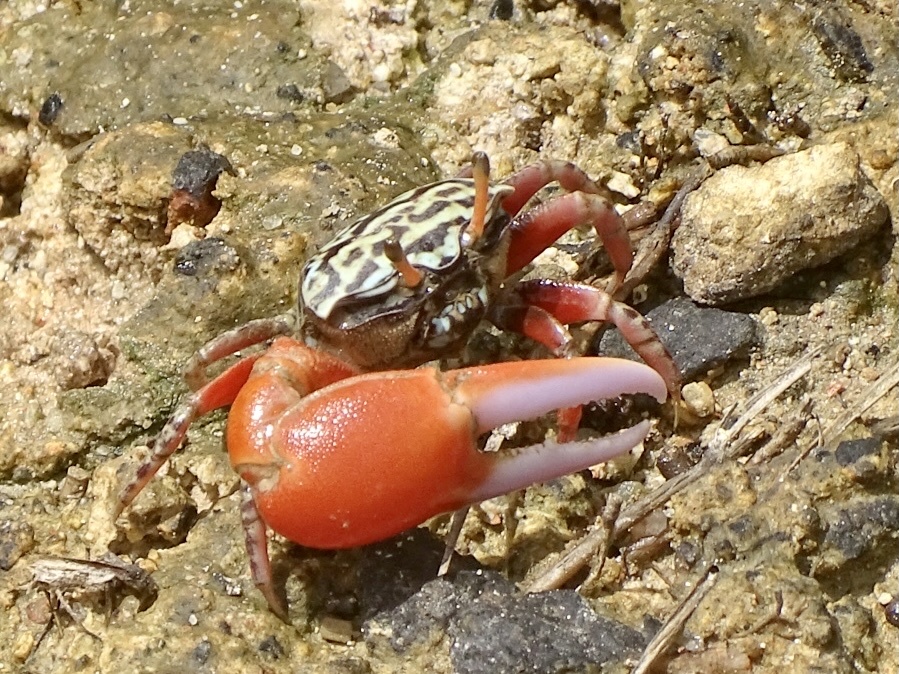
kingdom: Animalia
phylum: Arthropoda
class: Malacostraca
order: Decapoda
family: Ocypodidae
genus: Paraleptuca
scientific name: Paraleptuca splendida
